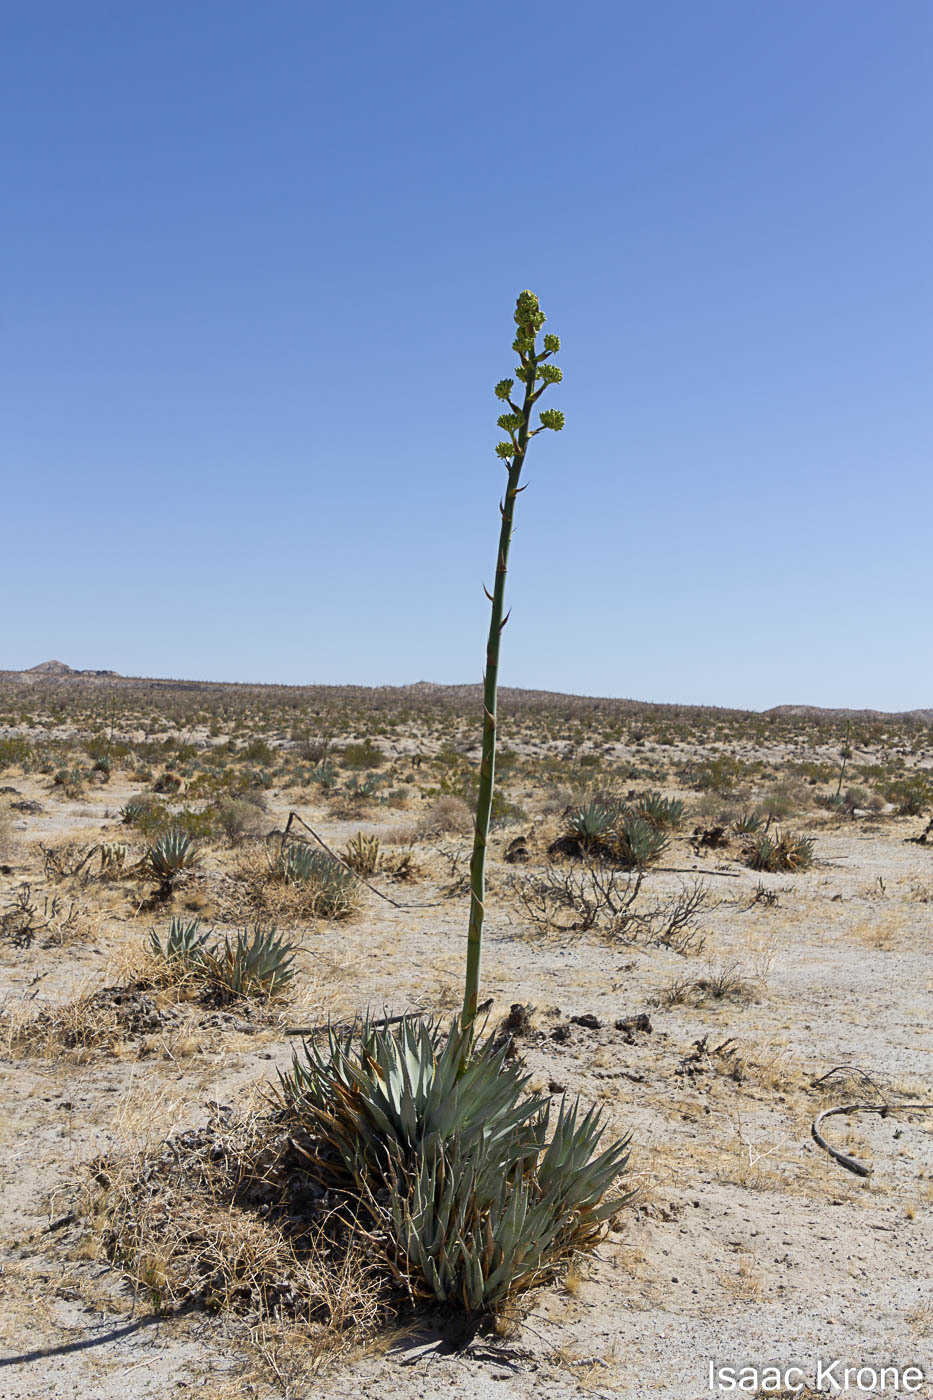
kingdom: Plantae
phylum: Tracheophyta
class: Liliopsida
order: Asparagales
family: Asparagaceae
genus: Agave
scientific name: Agave deserti
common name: Desert agave
